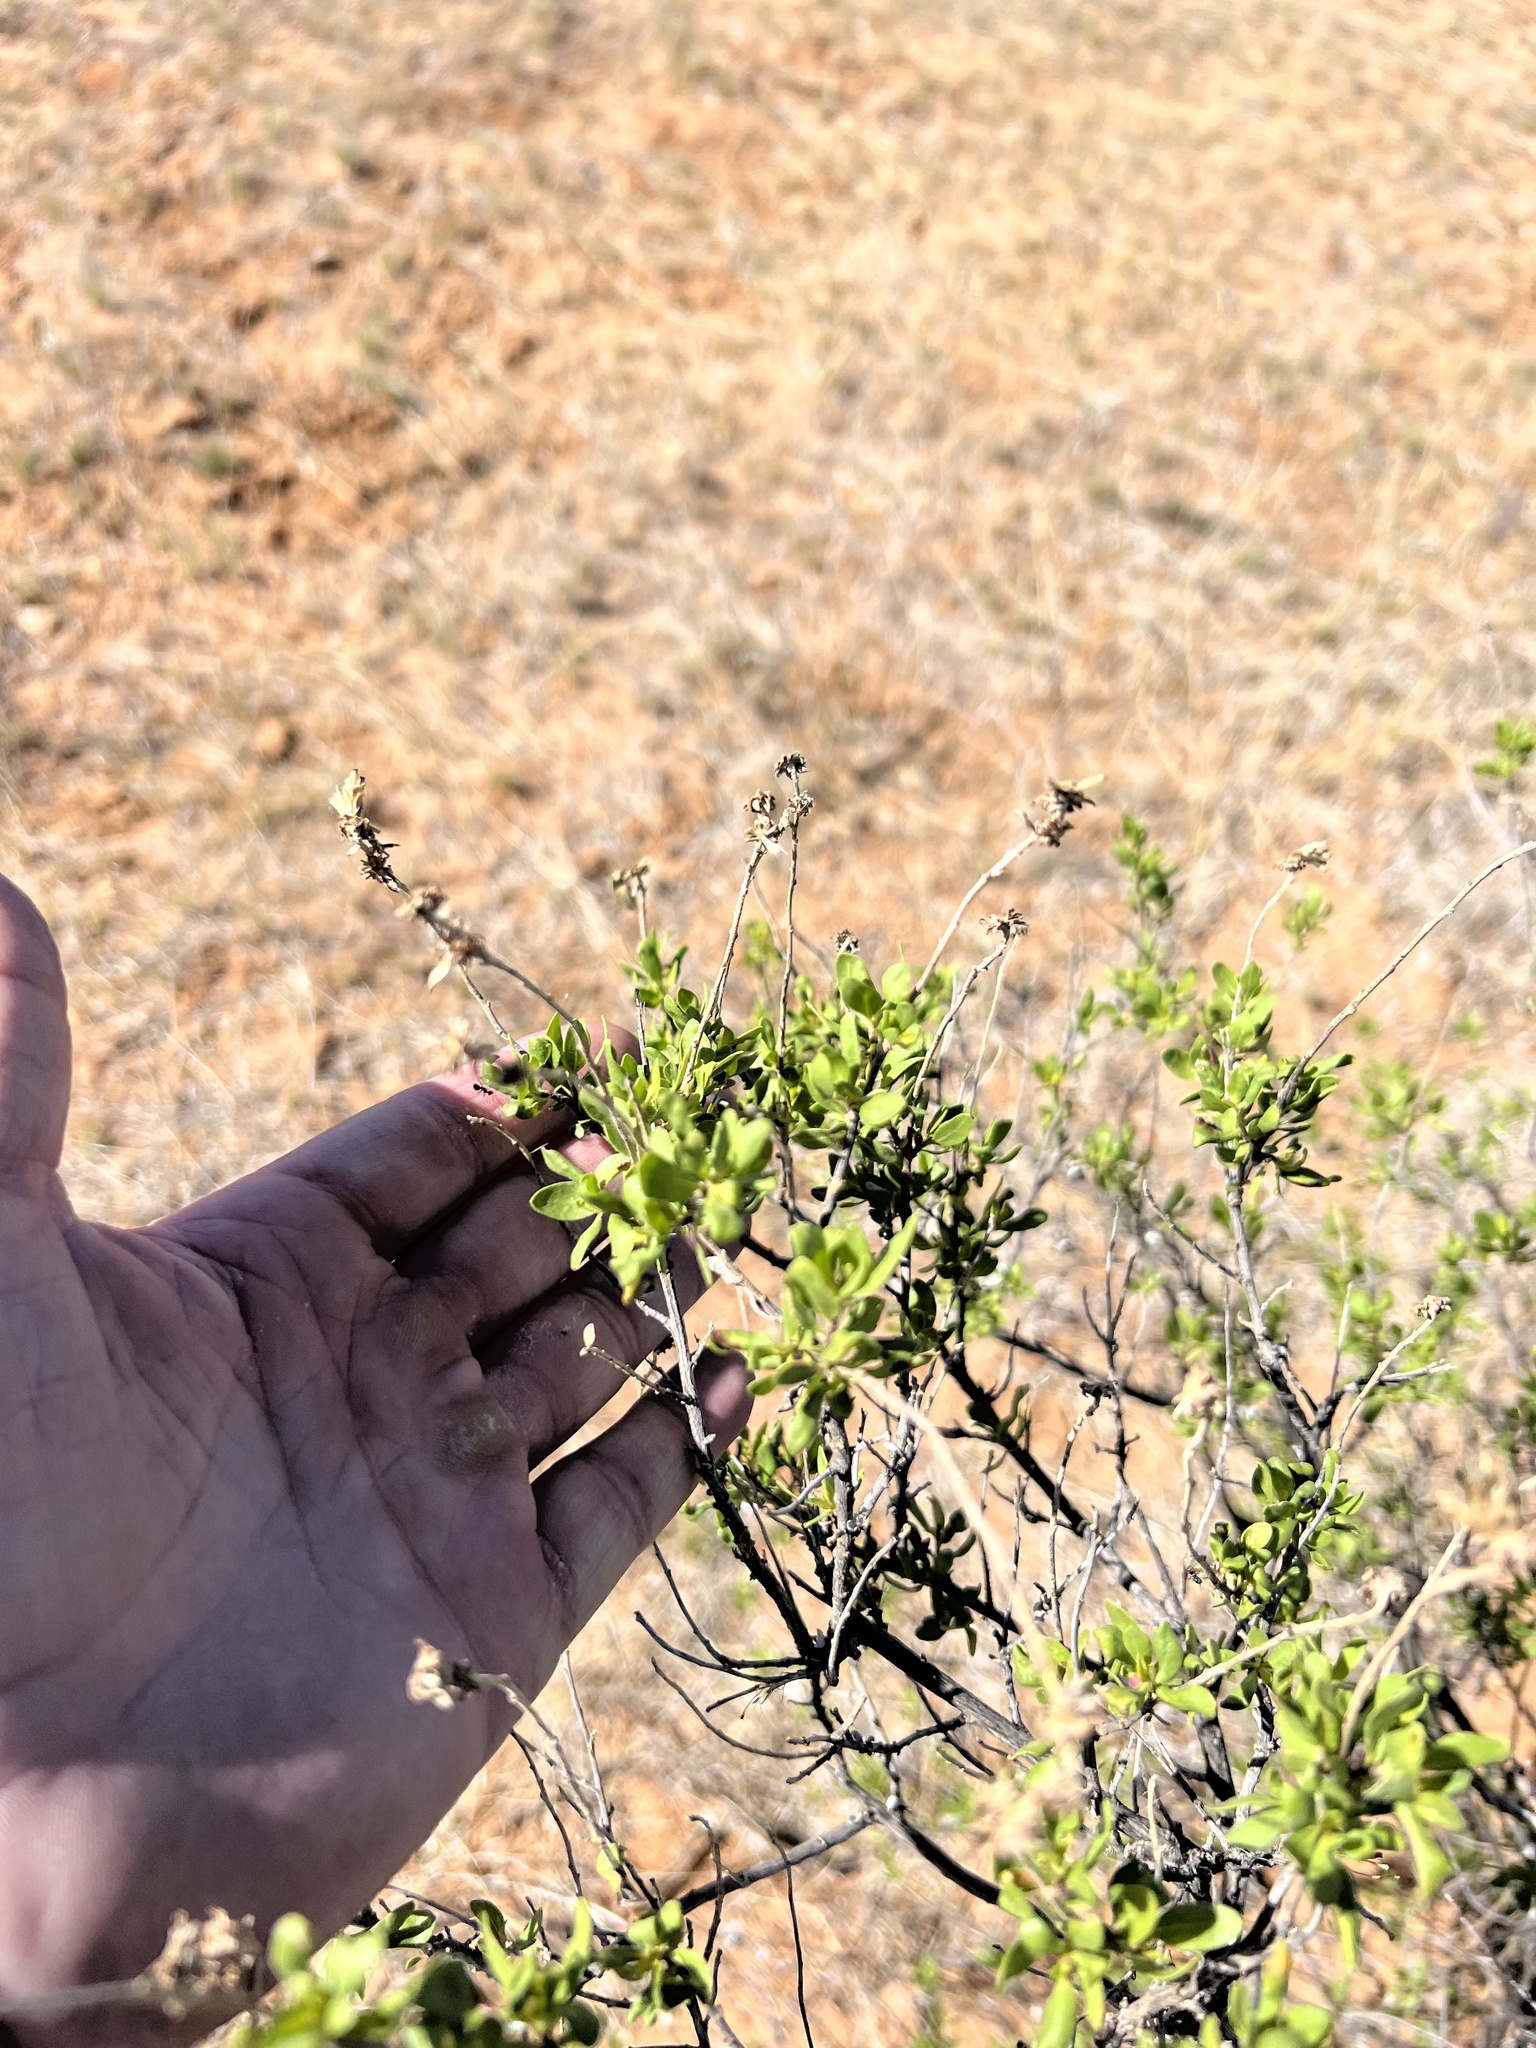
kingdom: Plantae
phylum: Tracheophyta
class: Magnoliopsida
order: Asterales
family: Asteraceae
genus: Flourensia
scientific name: Flourensia cernua
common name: Varnishbush
